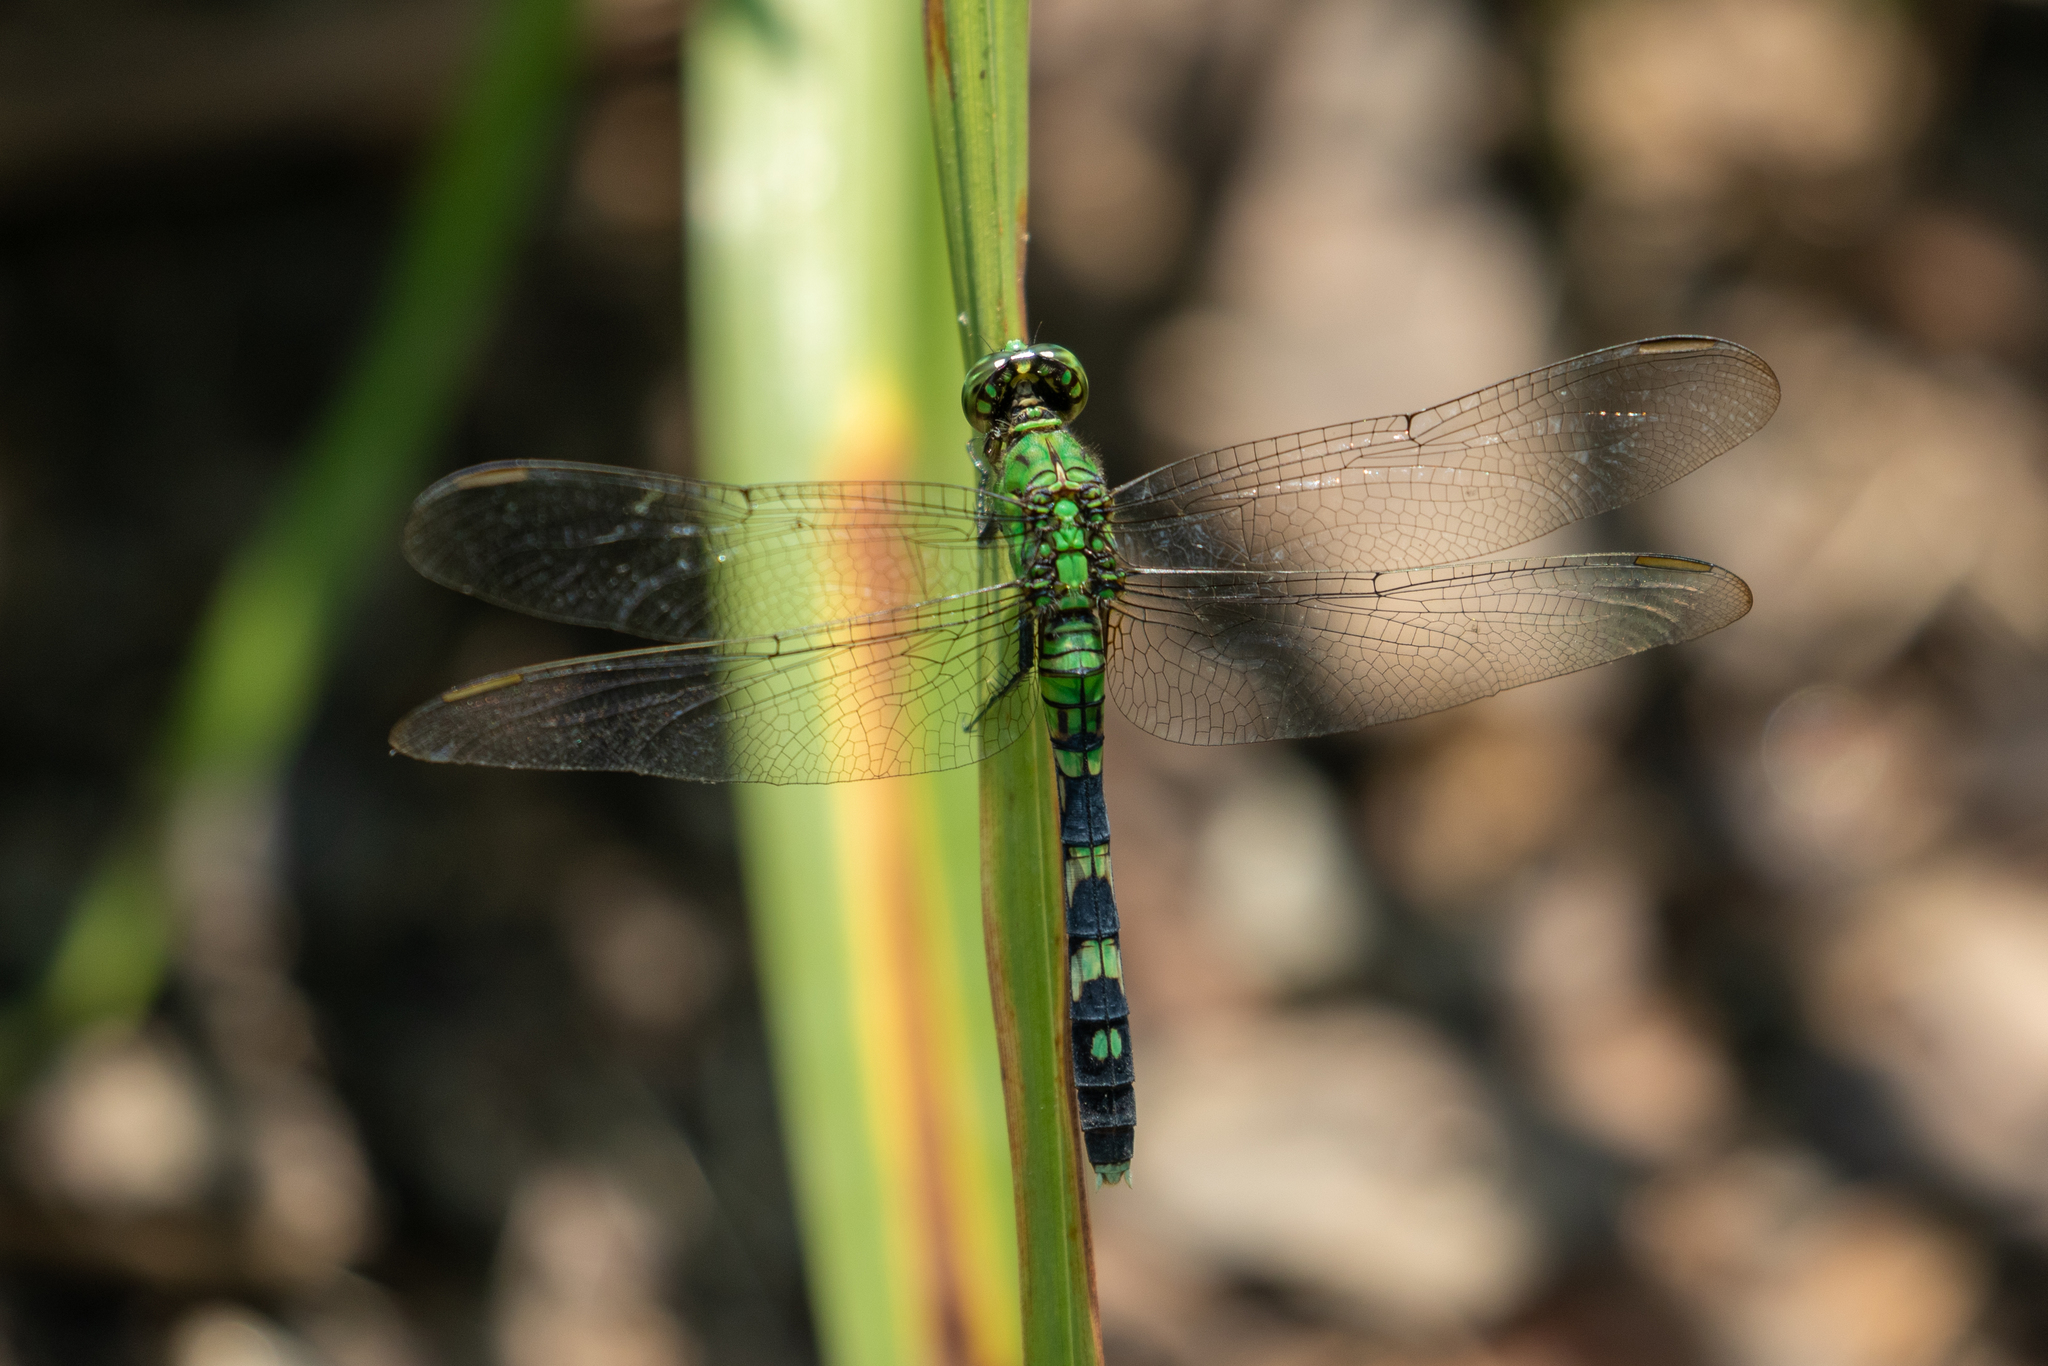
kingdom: Animalia
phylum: Arthropoda
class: Insecta
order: Odonata
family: Libellulidae
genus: Erythemis
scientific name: Erythemis simplicicollis
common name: Eastern pondhawk
